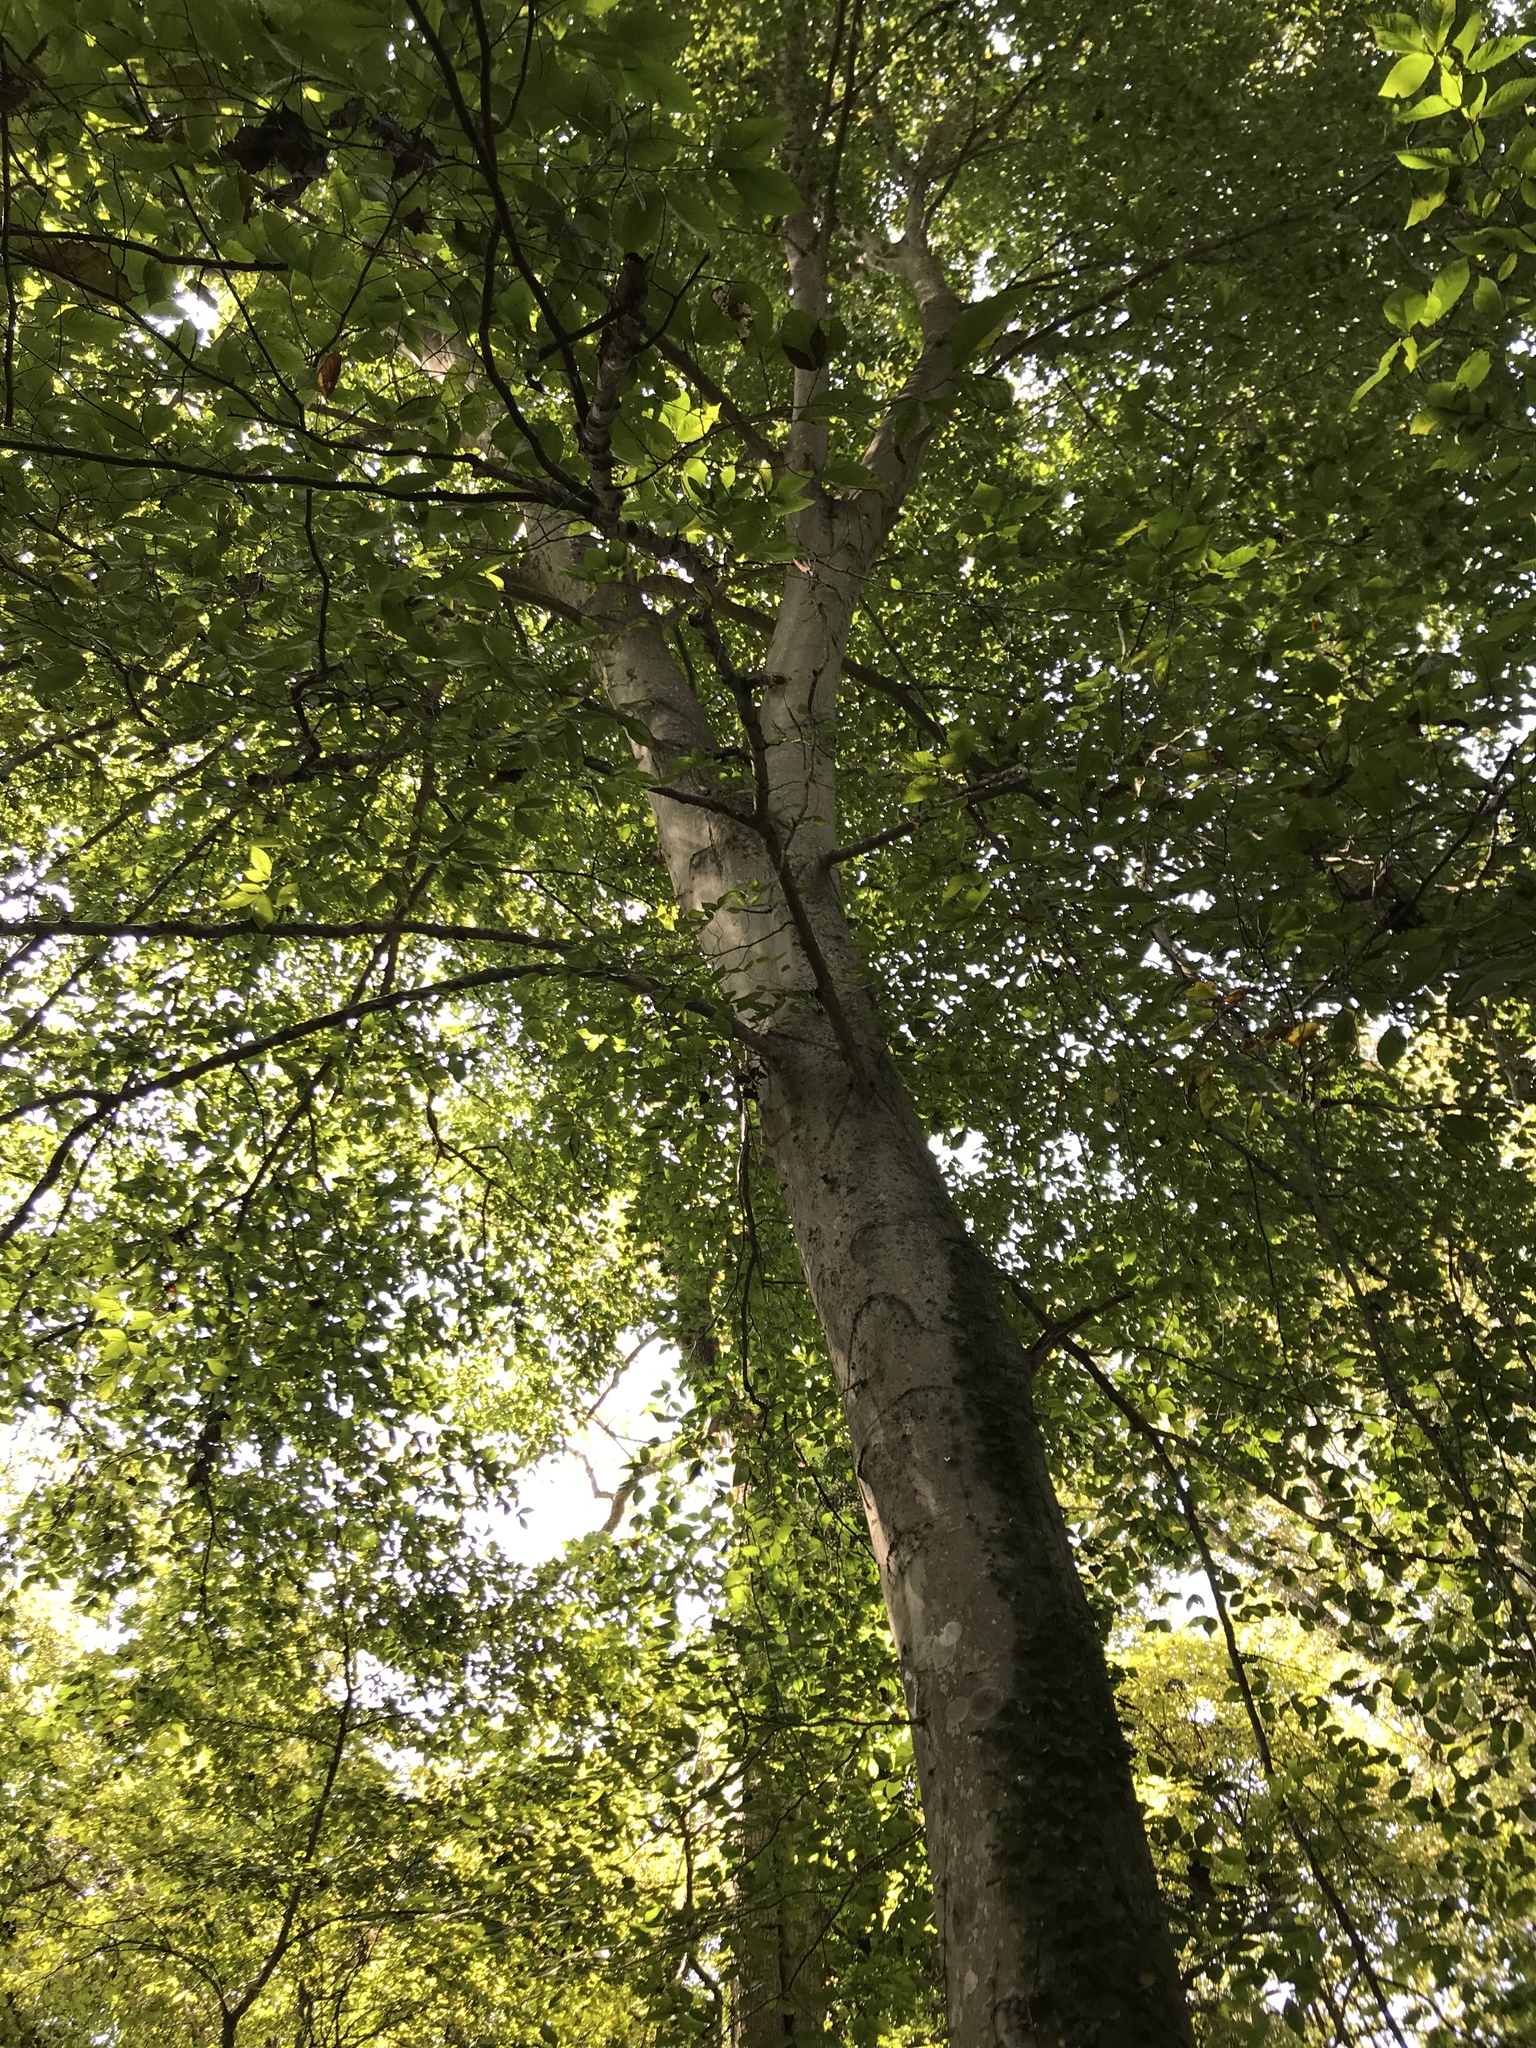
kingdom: Plantae
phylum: Tracheophyta
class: Magnoliopsida
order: Fagales
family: Fagaceae
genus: Fagus
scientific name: Fagus grandifolia
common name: American beech
